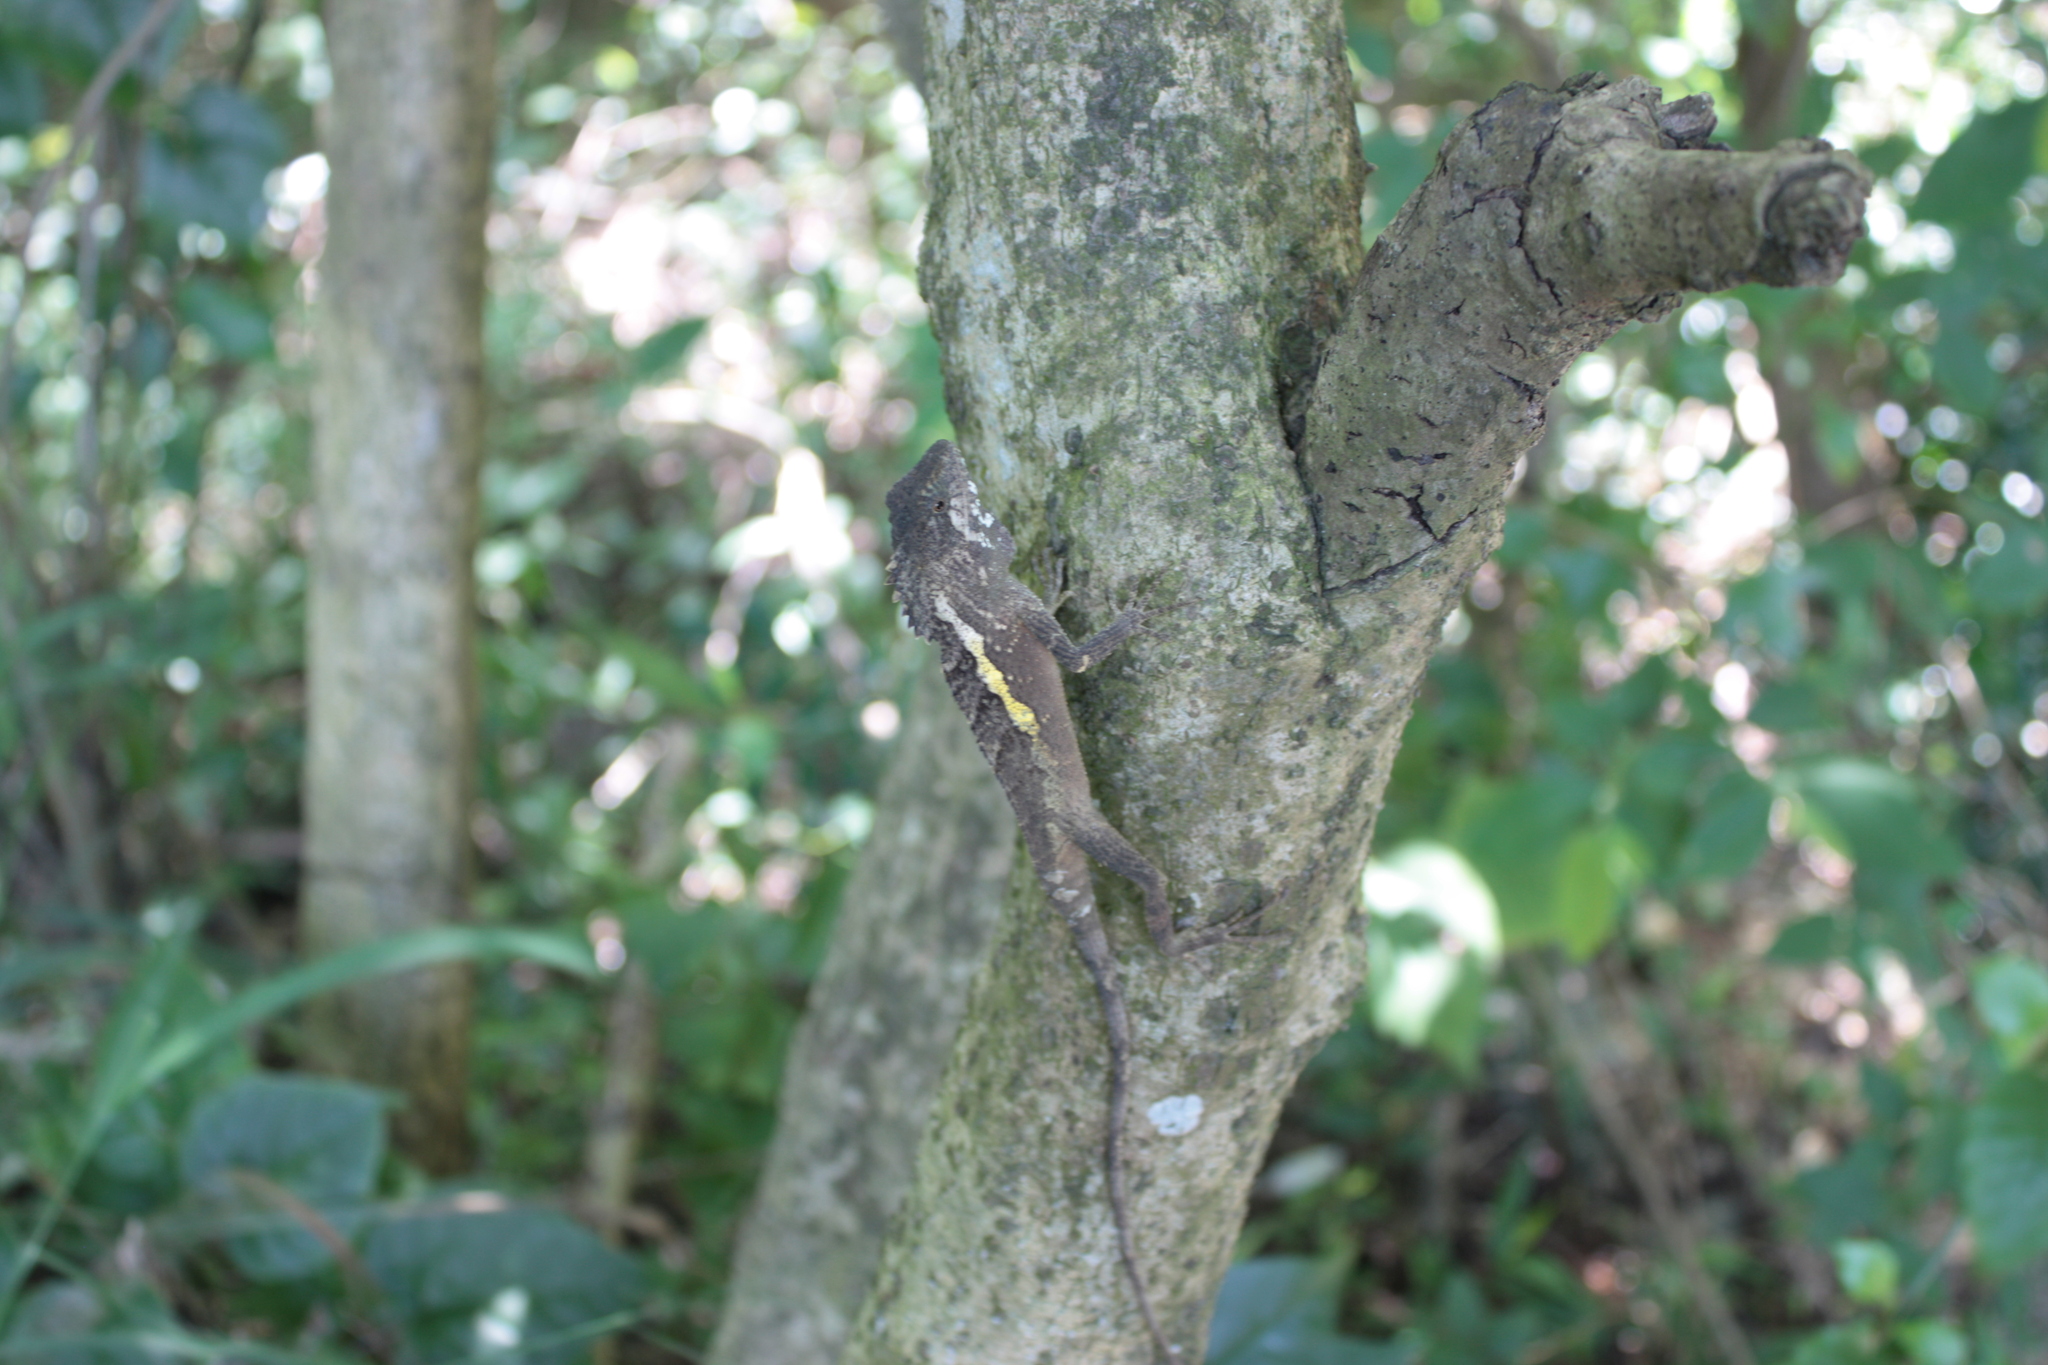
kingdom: Animalia
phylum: Chordata
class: Squamata
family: Agamidae
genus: Diploderma
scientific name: Diploderma swinhonis
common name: Taiwan japalure
